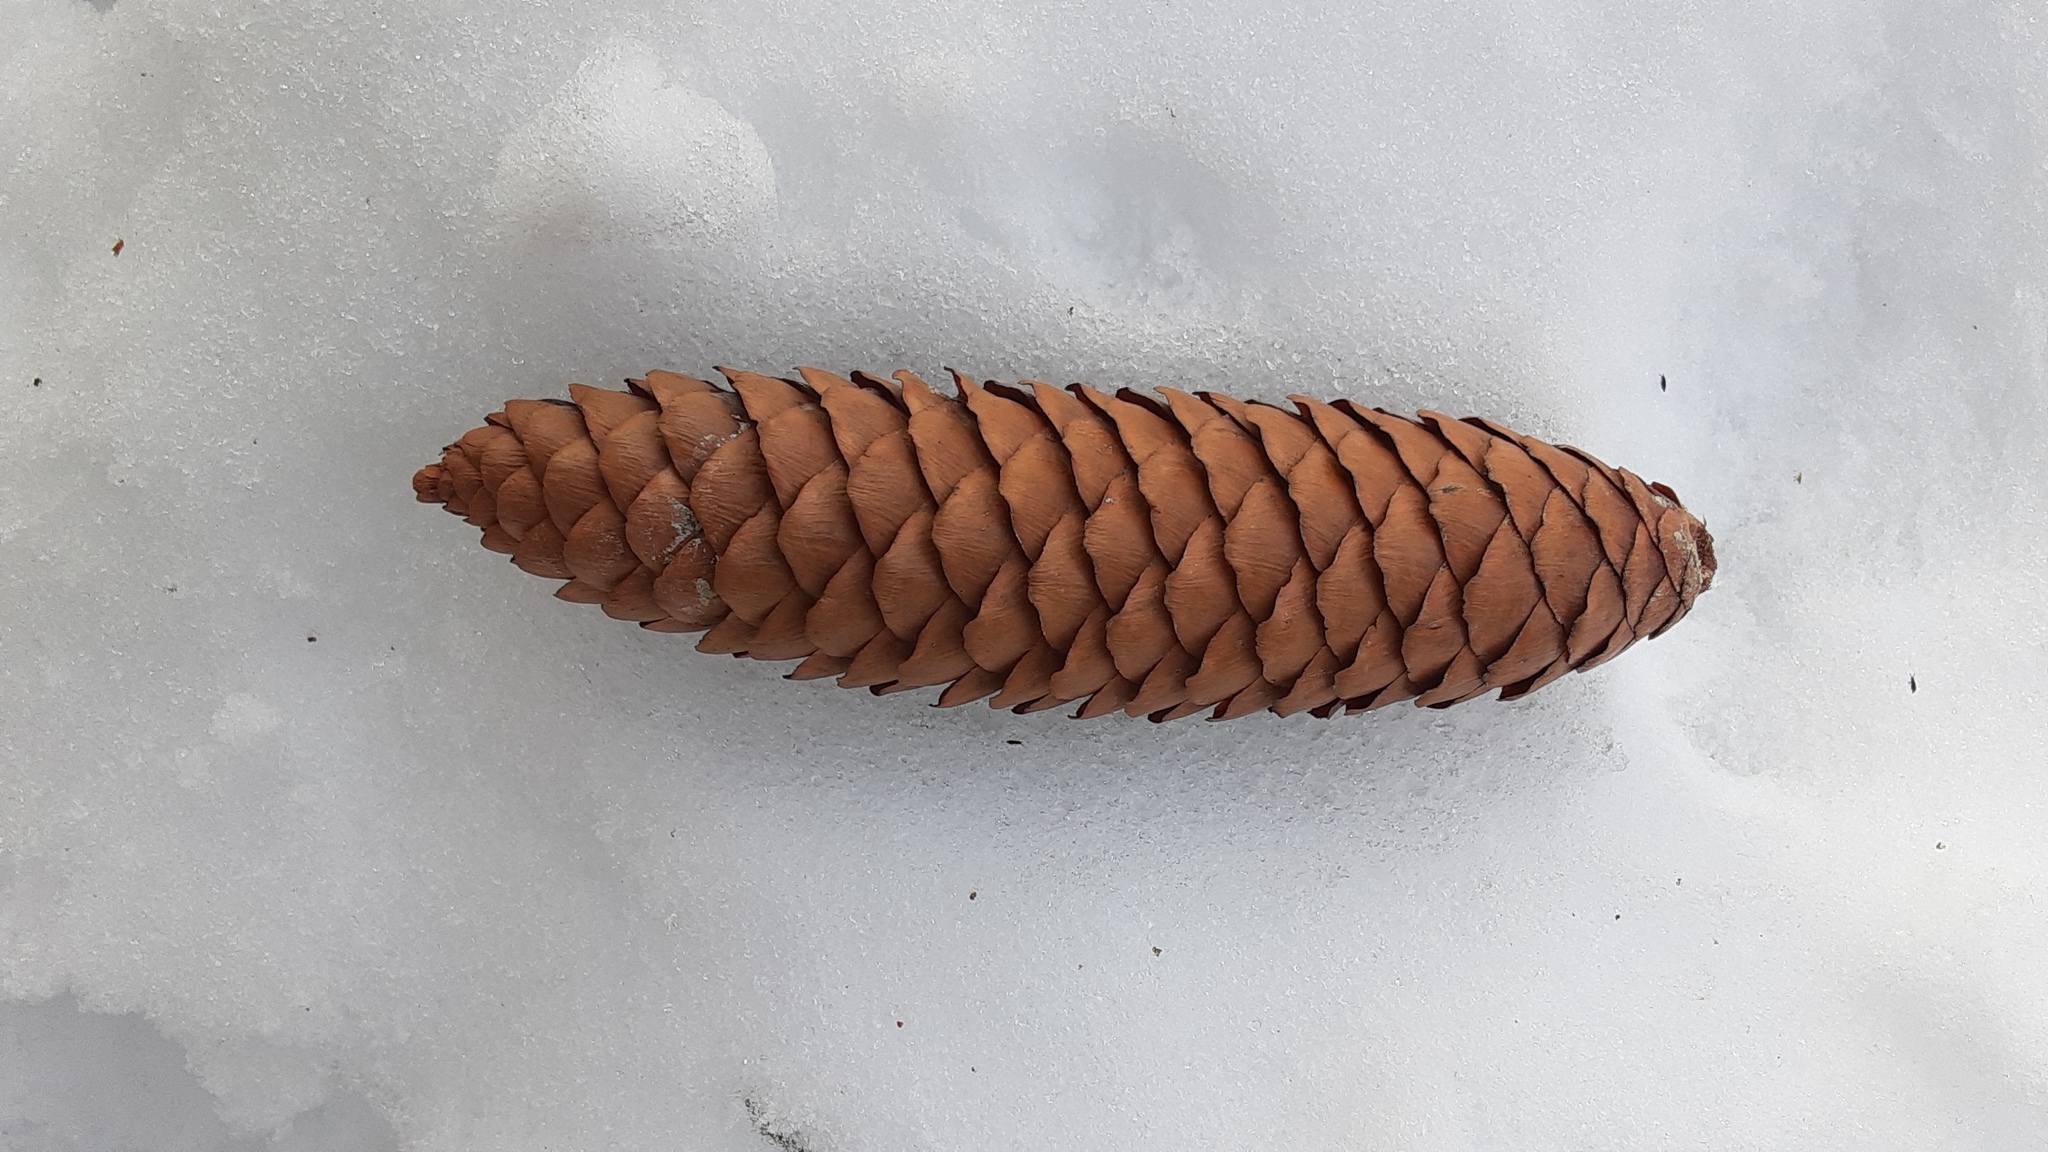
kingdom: Plantae
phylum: Tracheophyta
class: Pinopsida
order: Pinales
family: Pinaceae
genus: Picea
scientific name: Picea abies
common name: Norway spruce
